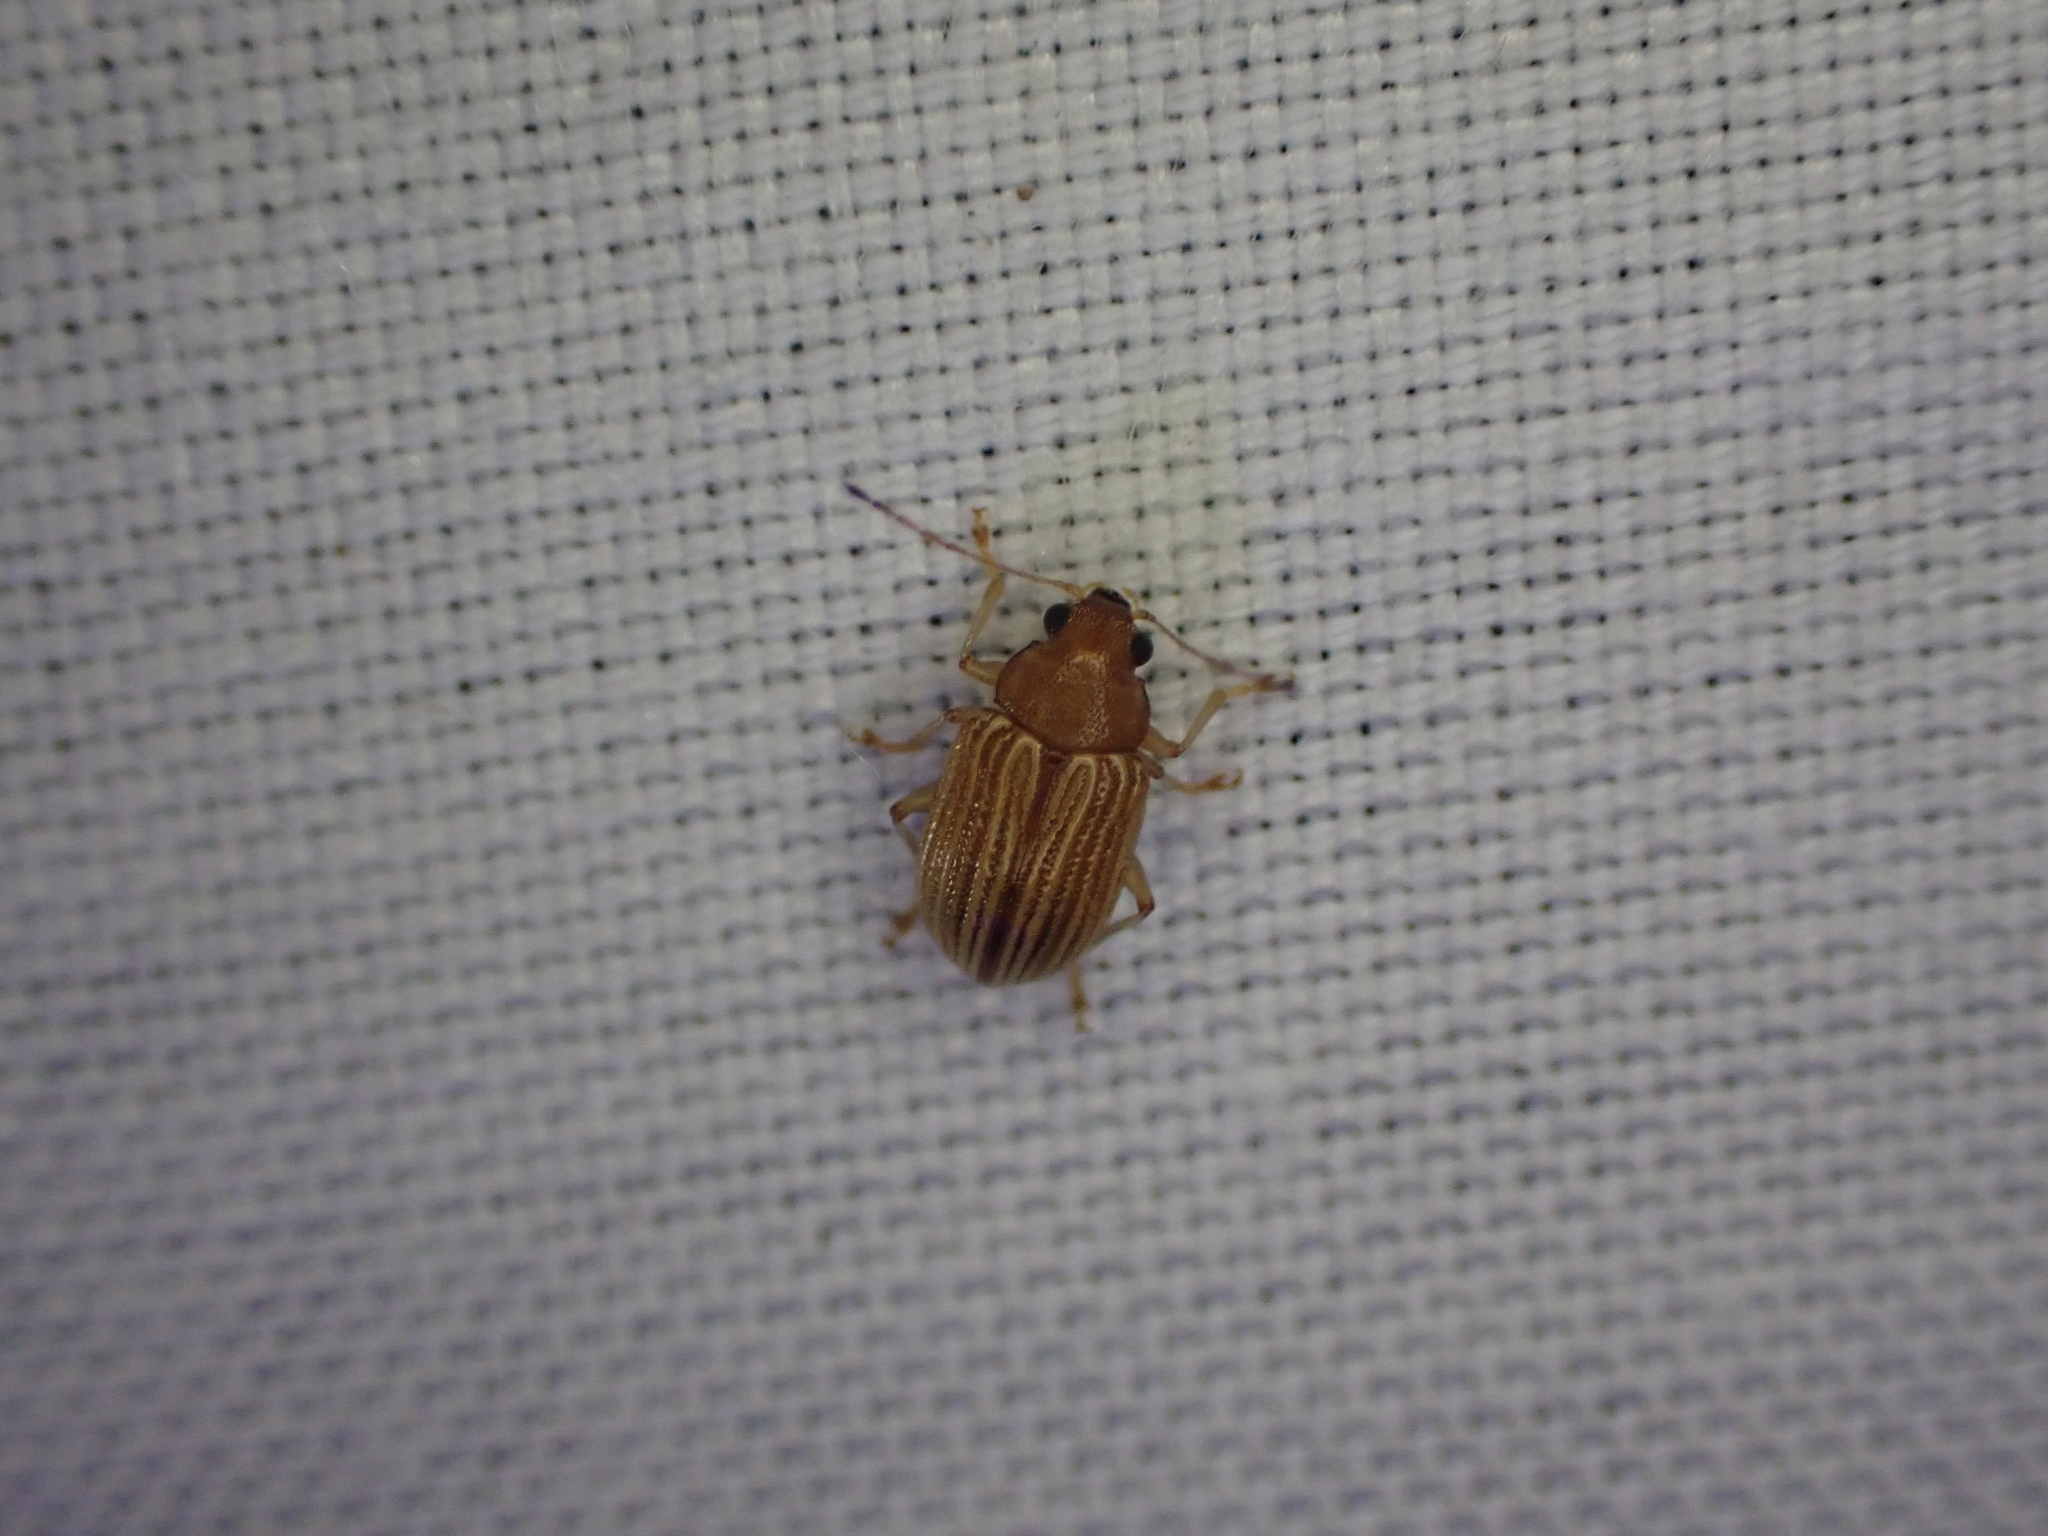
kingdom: Animalia
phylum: Arthropoda
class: Insecta
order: Coleoptera
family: Chrysomelidae
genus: Colaspis
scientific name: Colaspis brunnea
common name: Grape colaspis
